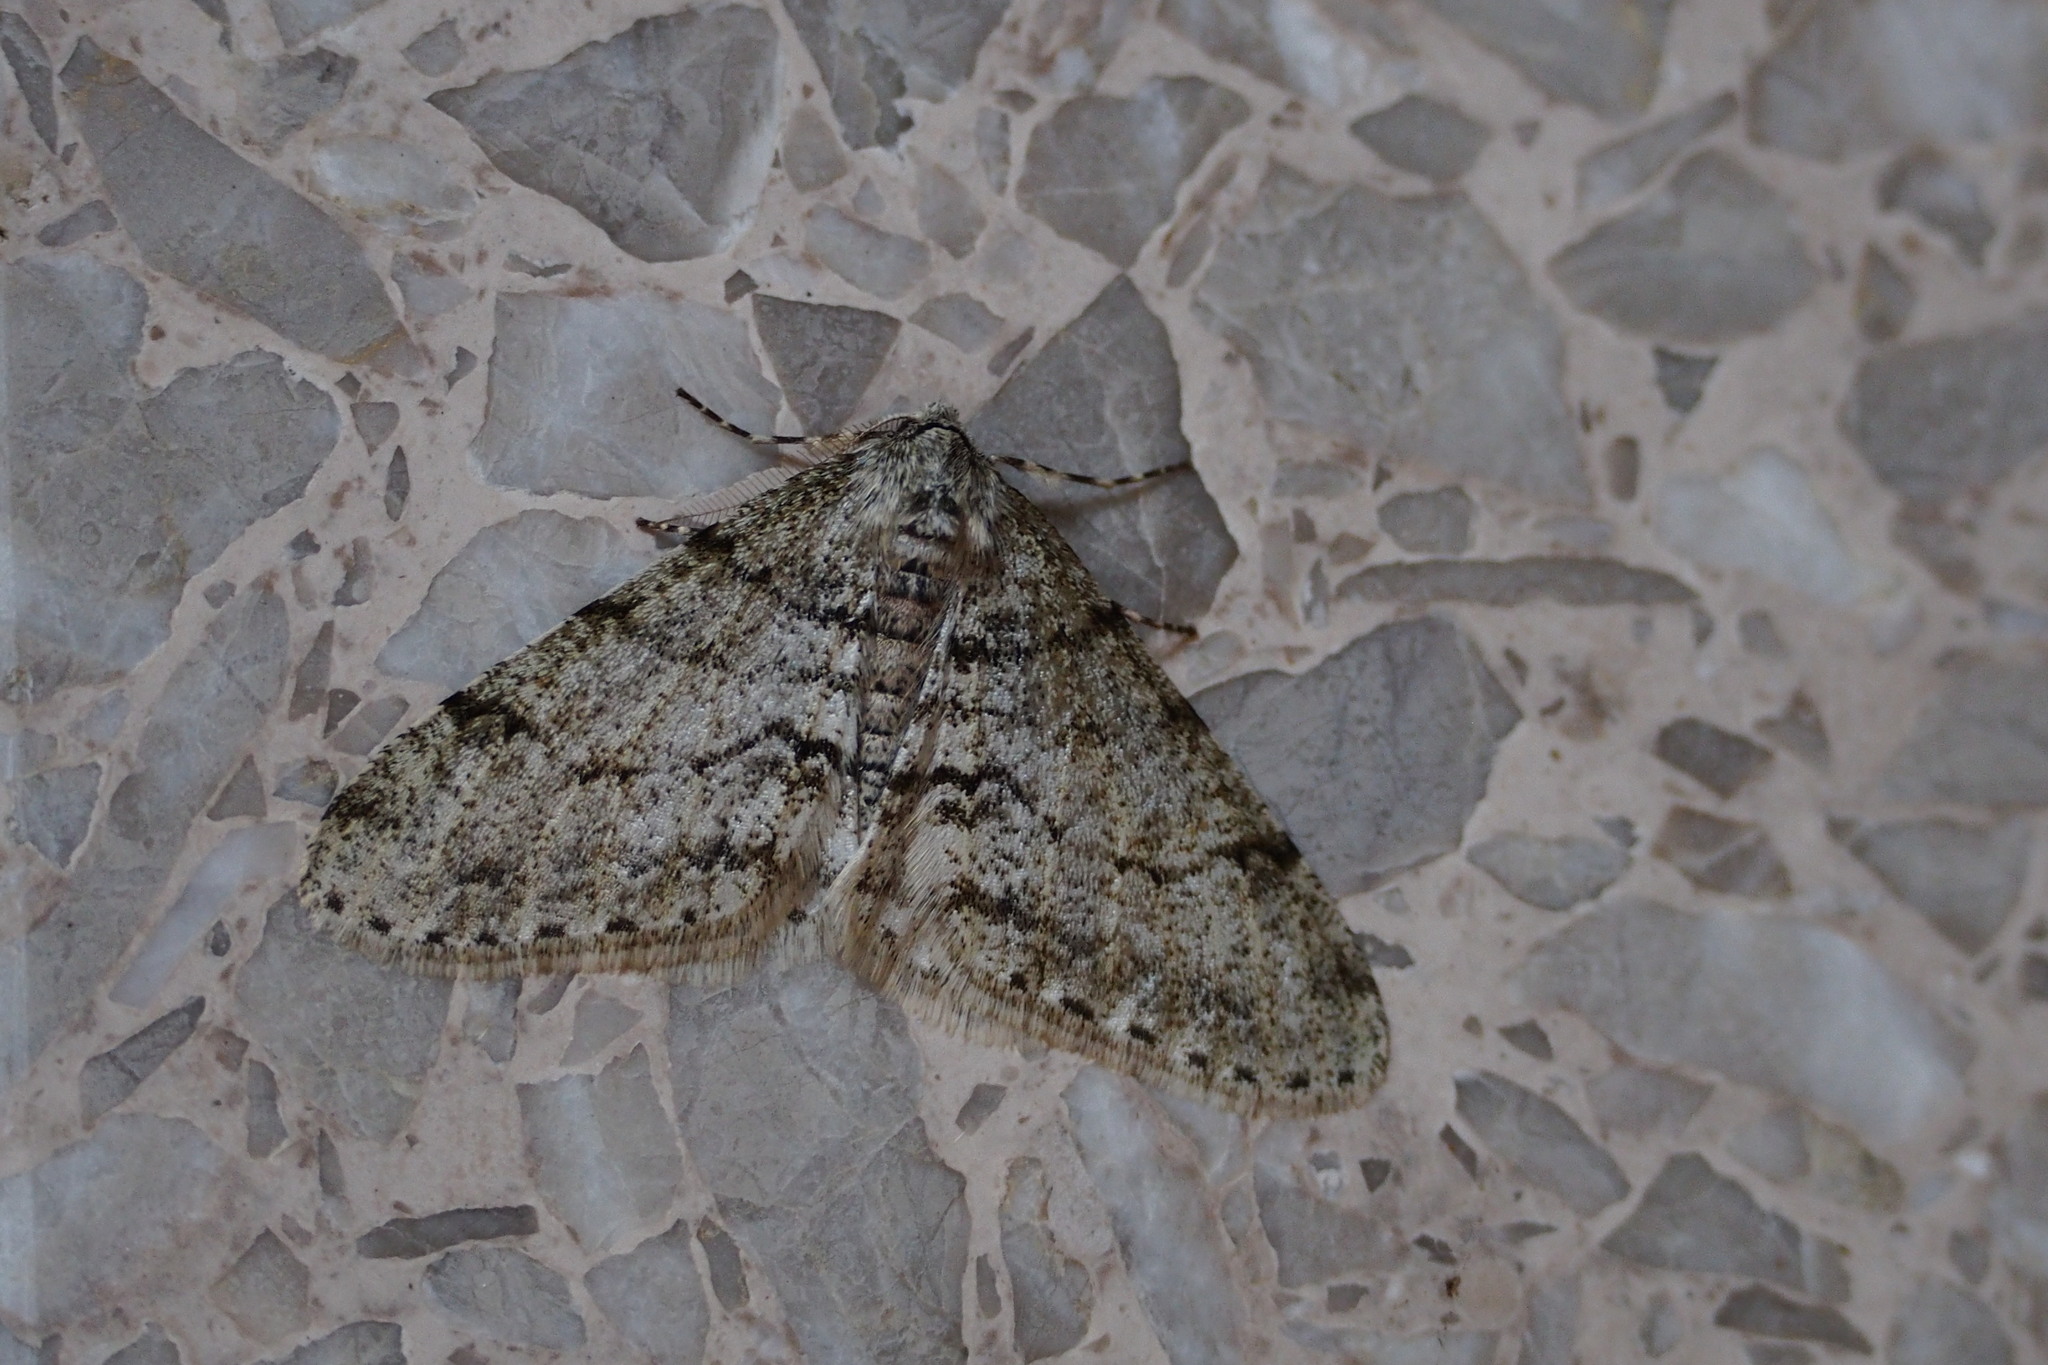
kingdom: Animalia
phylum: Arthropoda
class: Insecta
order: Lepidoptera
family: Geometridae
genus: Phigalia
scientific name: Phigalia verecundaria
